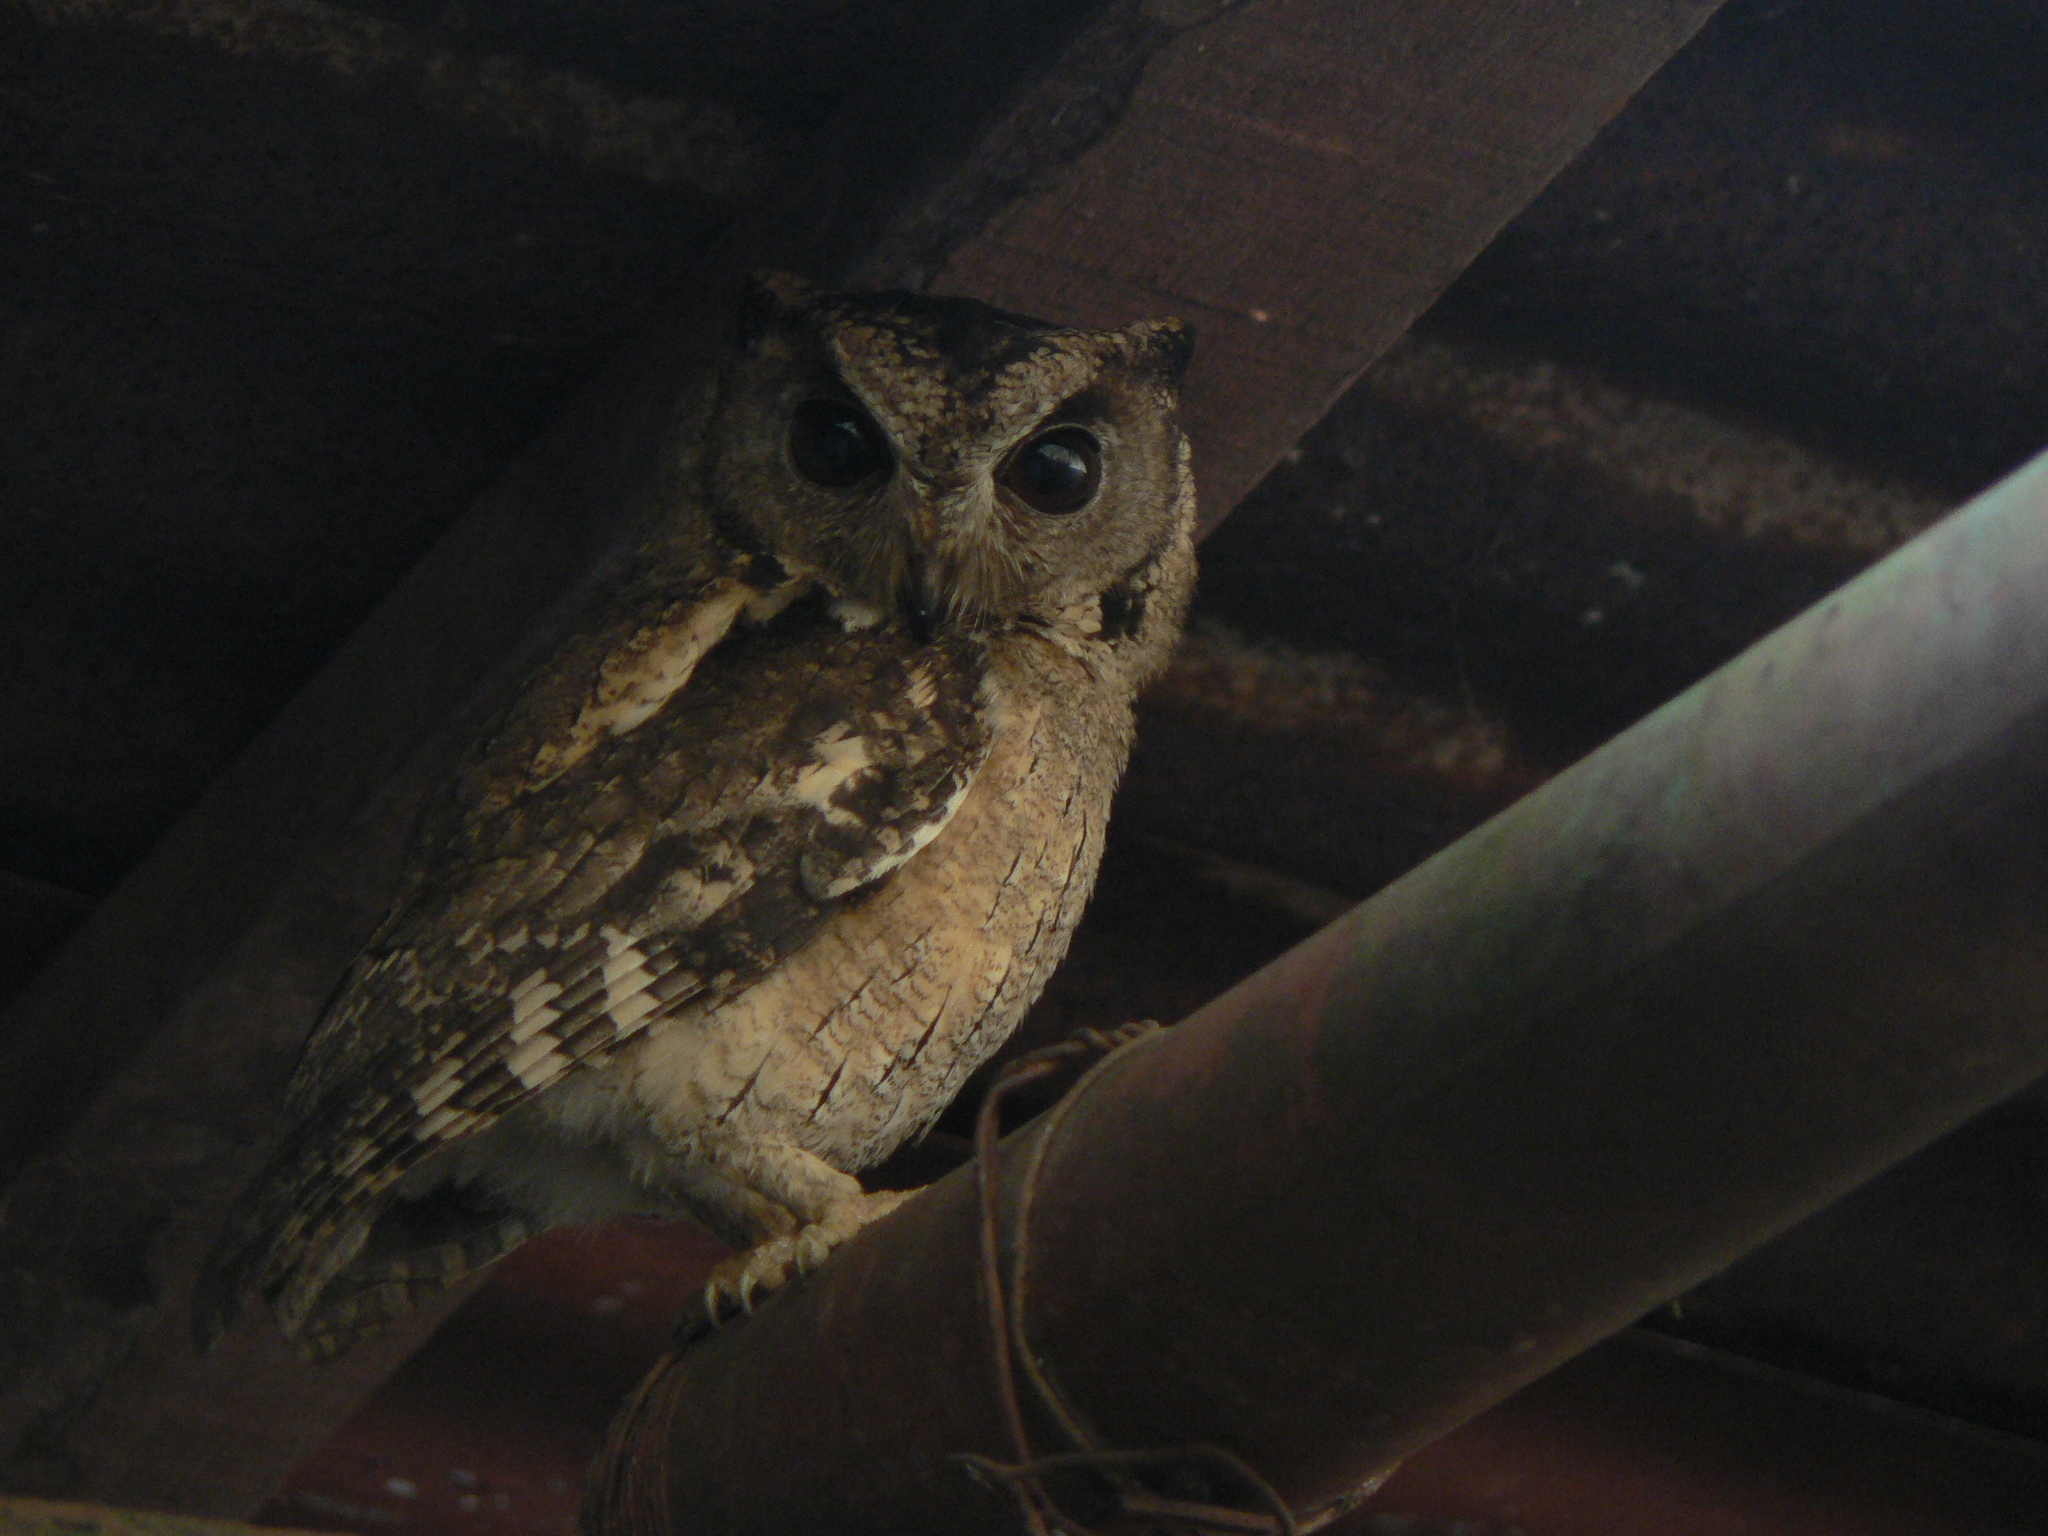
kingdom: Animalia
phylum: Chordata
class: Aves
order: Strigiformes
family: Strigidae
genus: Otus
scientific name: Otus bakkamoena
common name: Indian scops owl
